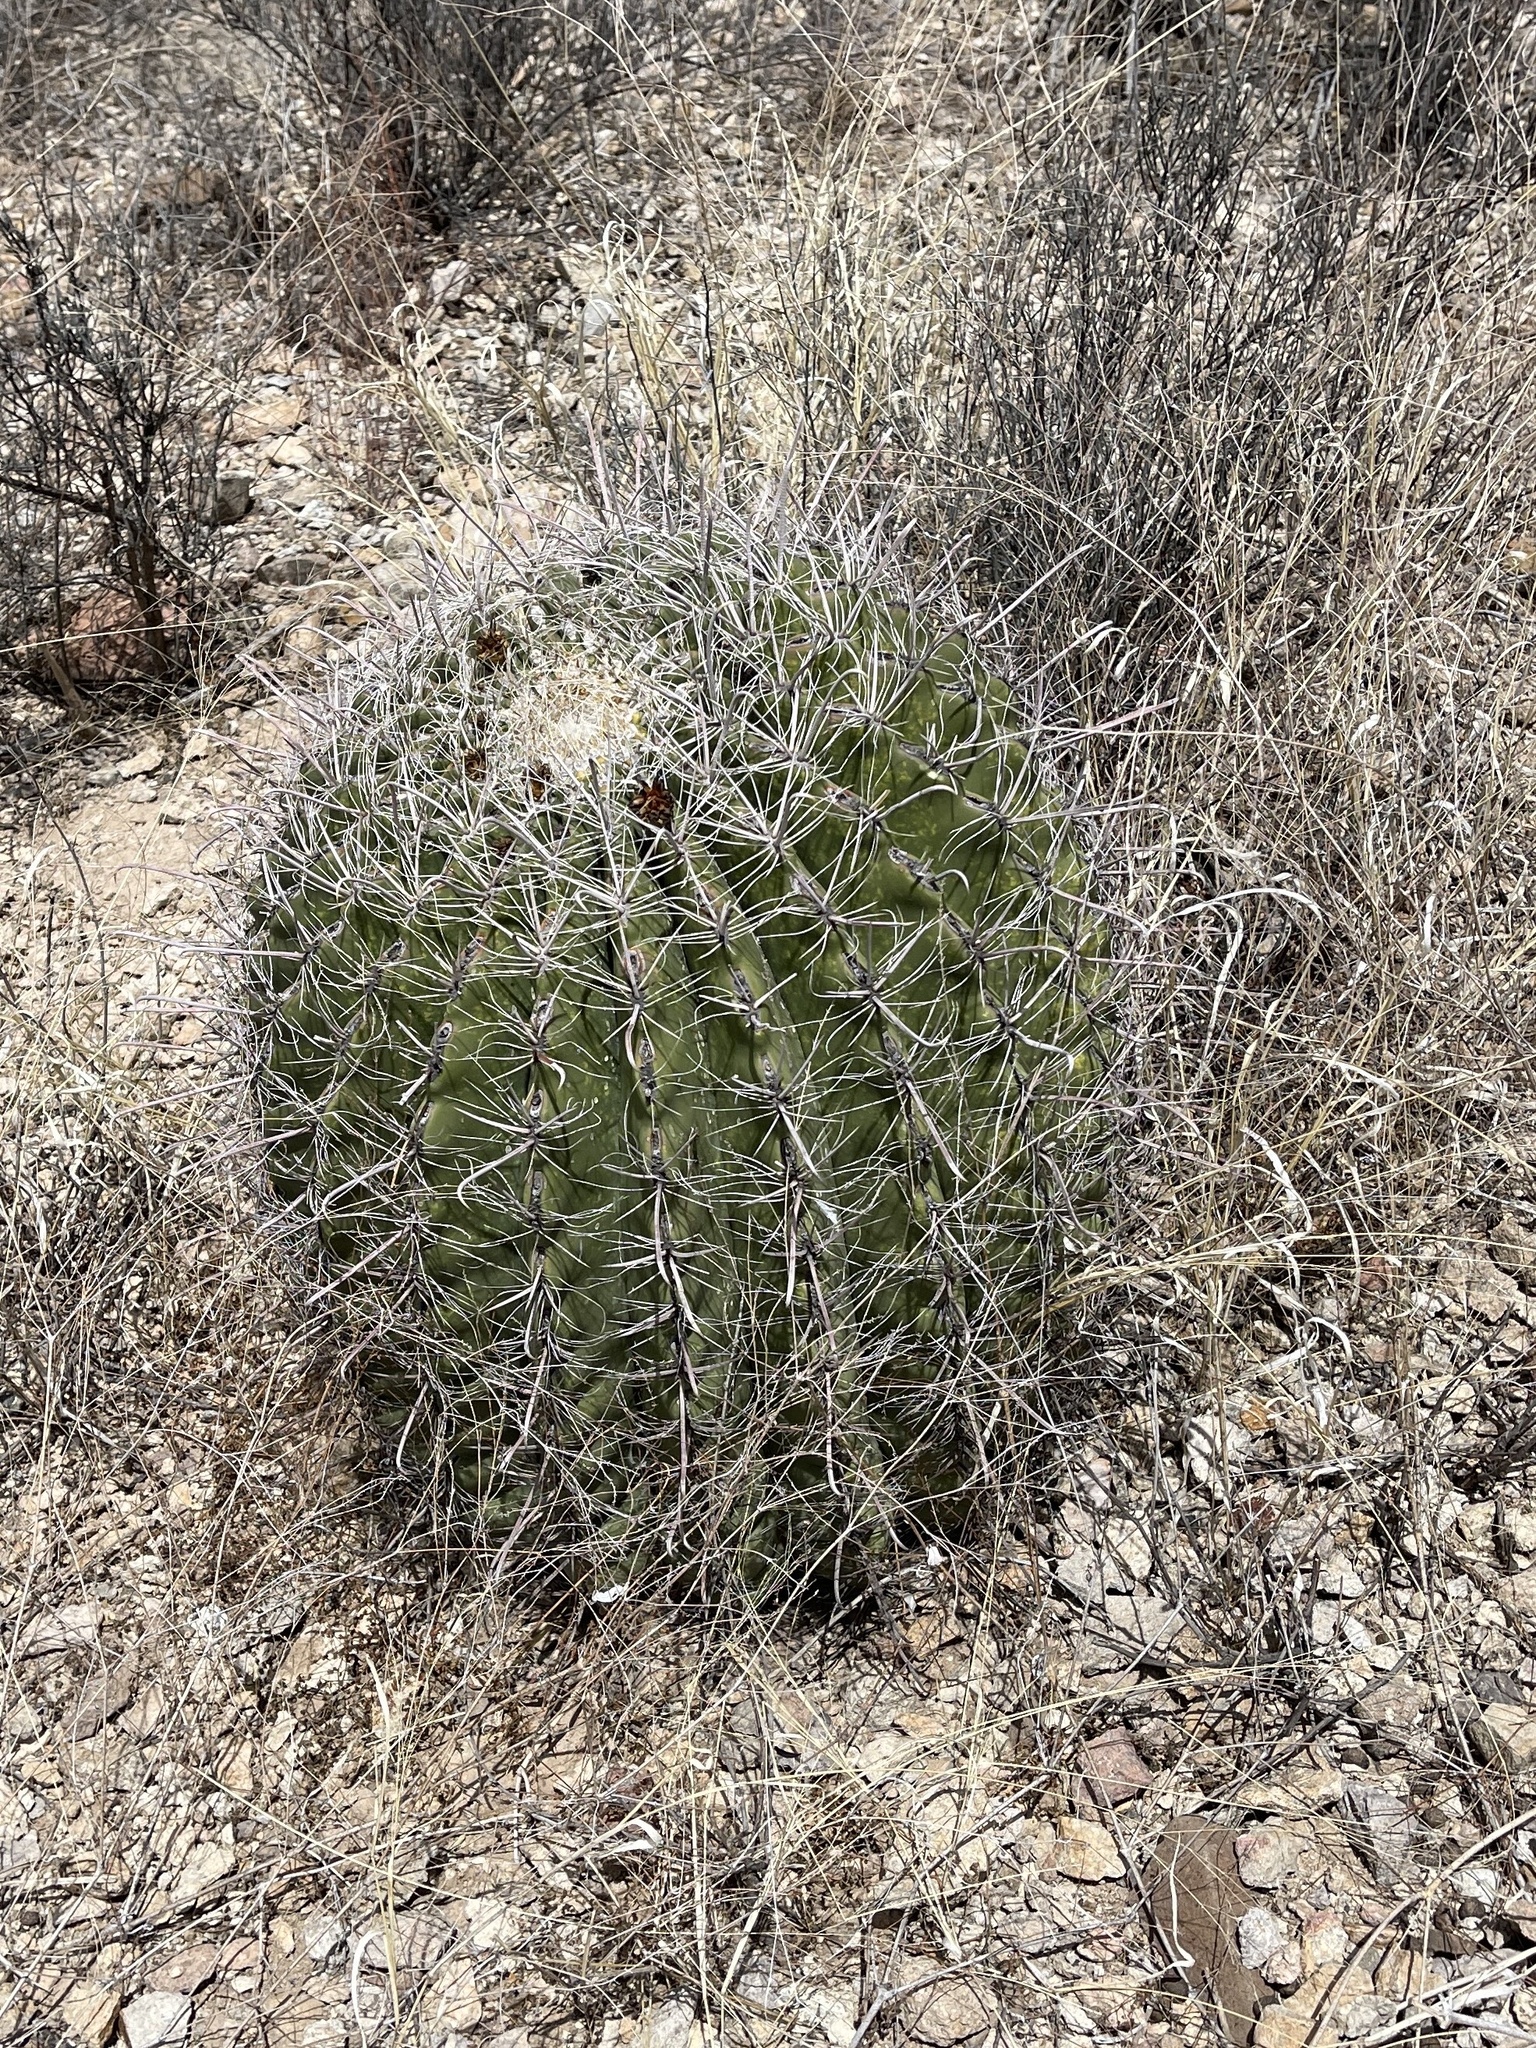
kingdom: Plantae
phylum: Tracheophyta
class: Magnoliopsida
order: Caryophyllales
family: Cactaceae
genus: Ferocactus
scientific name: Ferocactus wislizeni
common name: Candy barrel cactus
